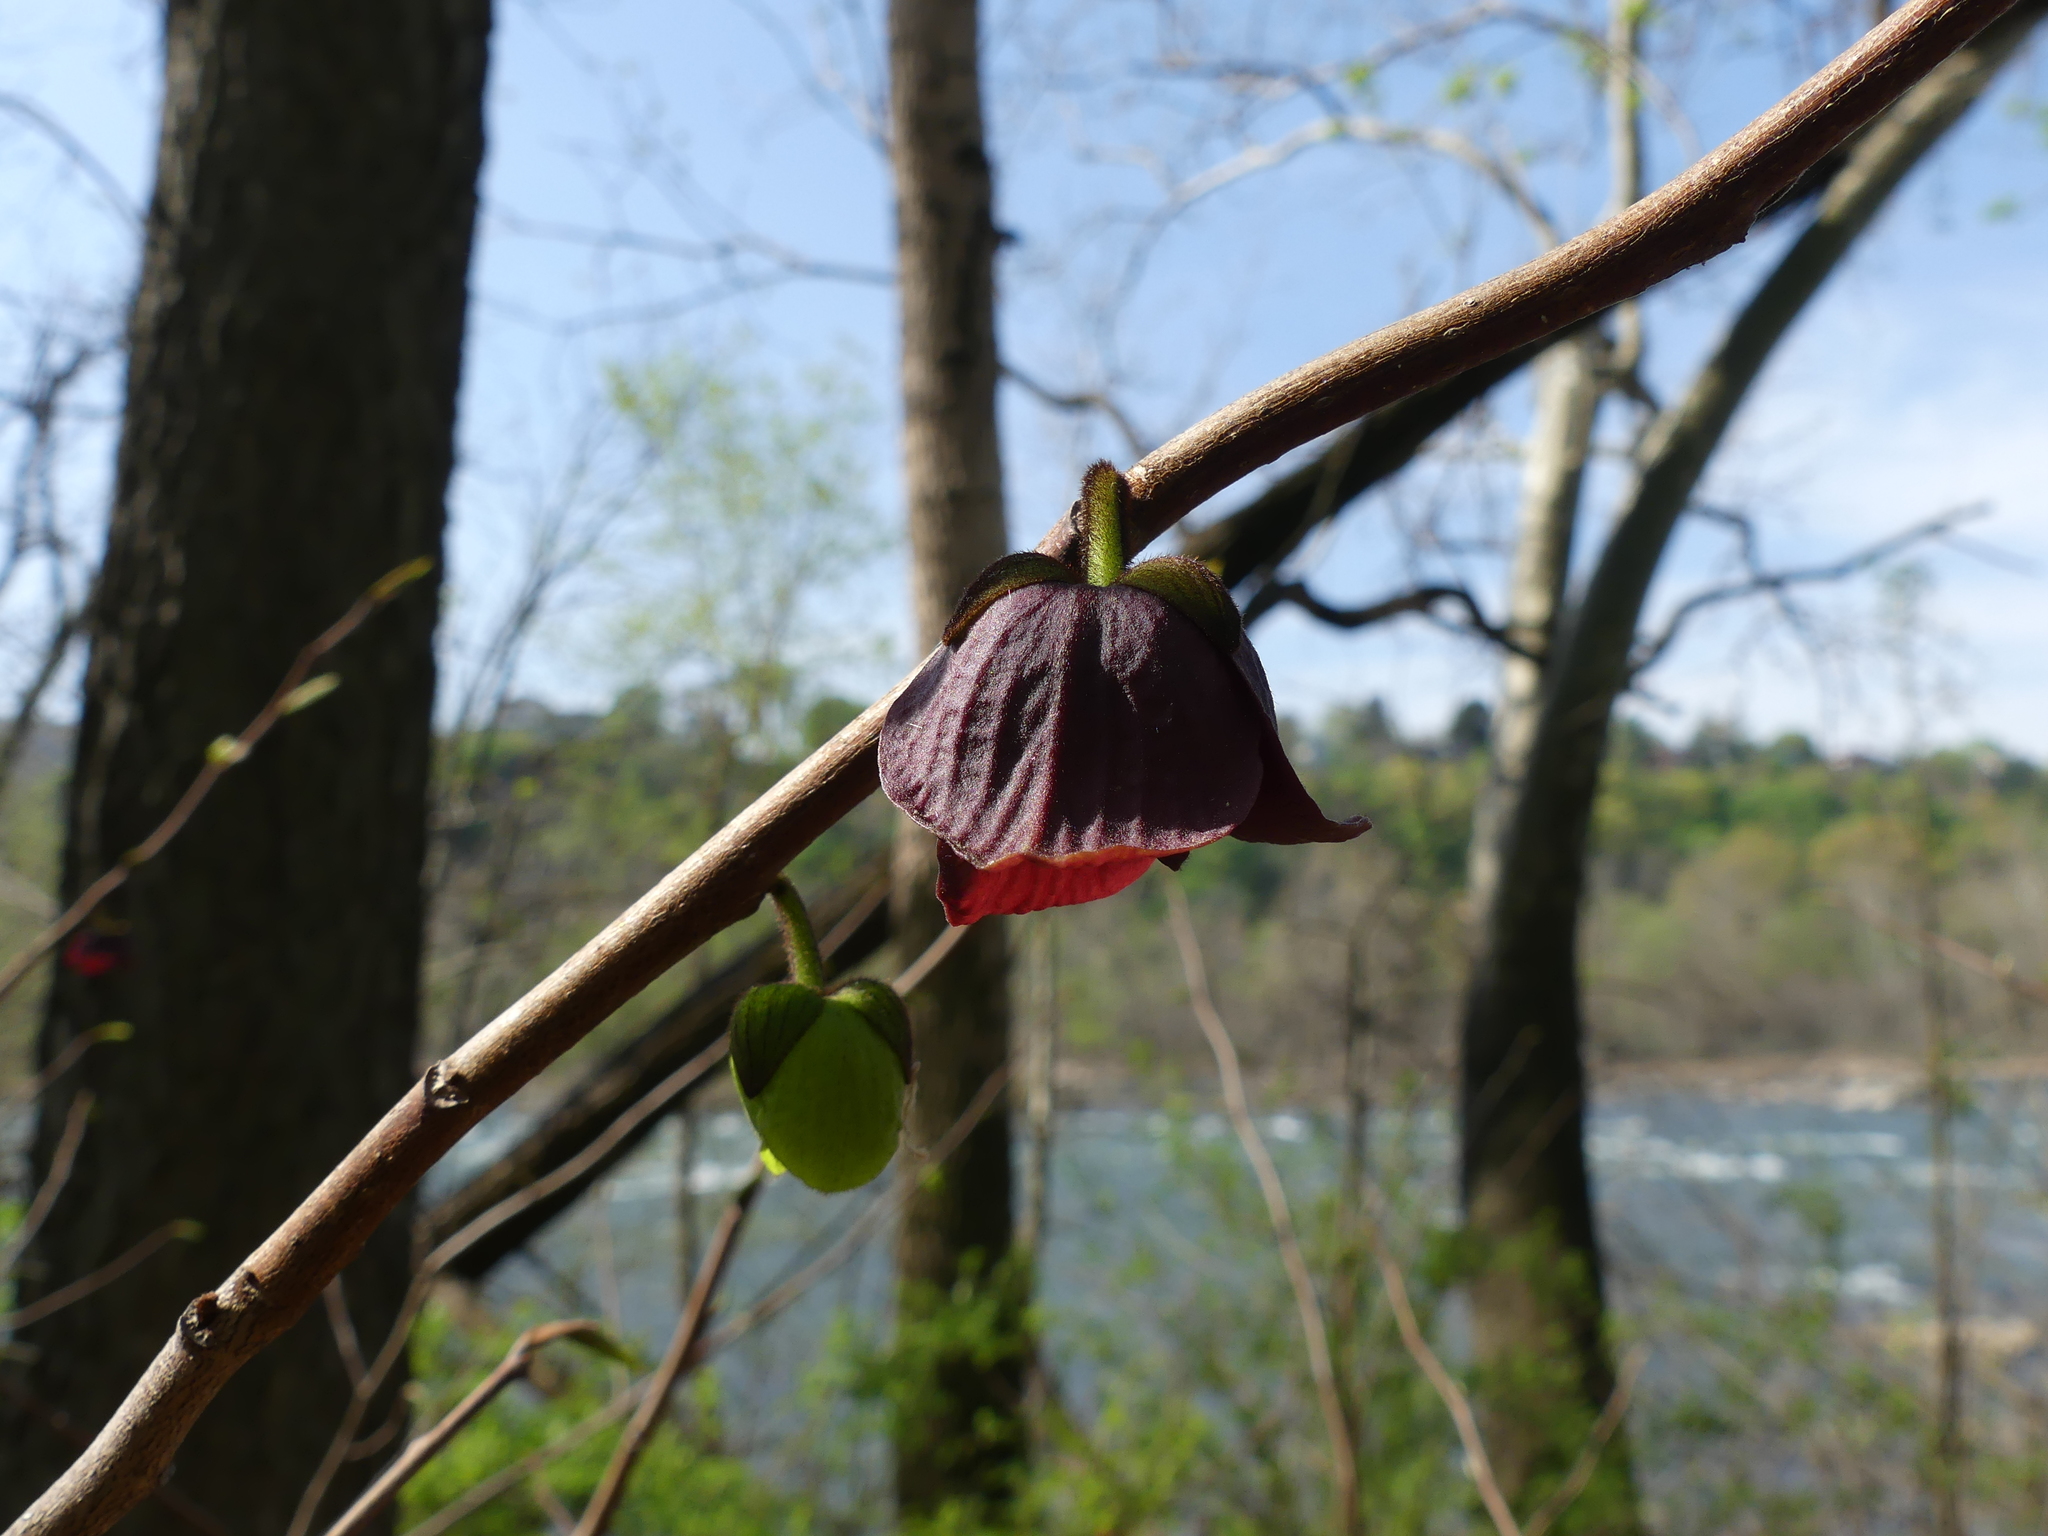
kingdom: Plantae
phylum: Tracheophyta
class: Magnoliopsida
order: Magnoliales
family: Annonaceae
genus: Asimina
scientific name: Asimina triloba
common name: Dog-banana
